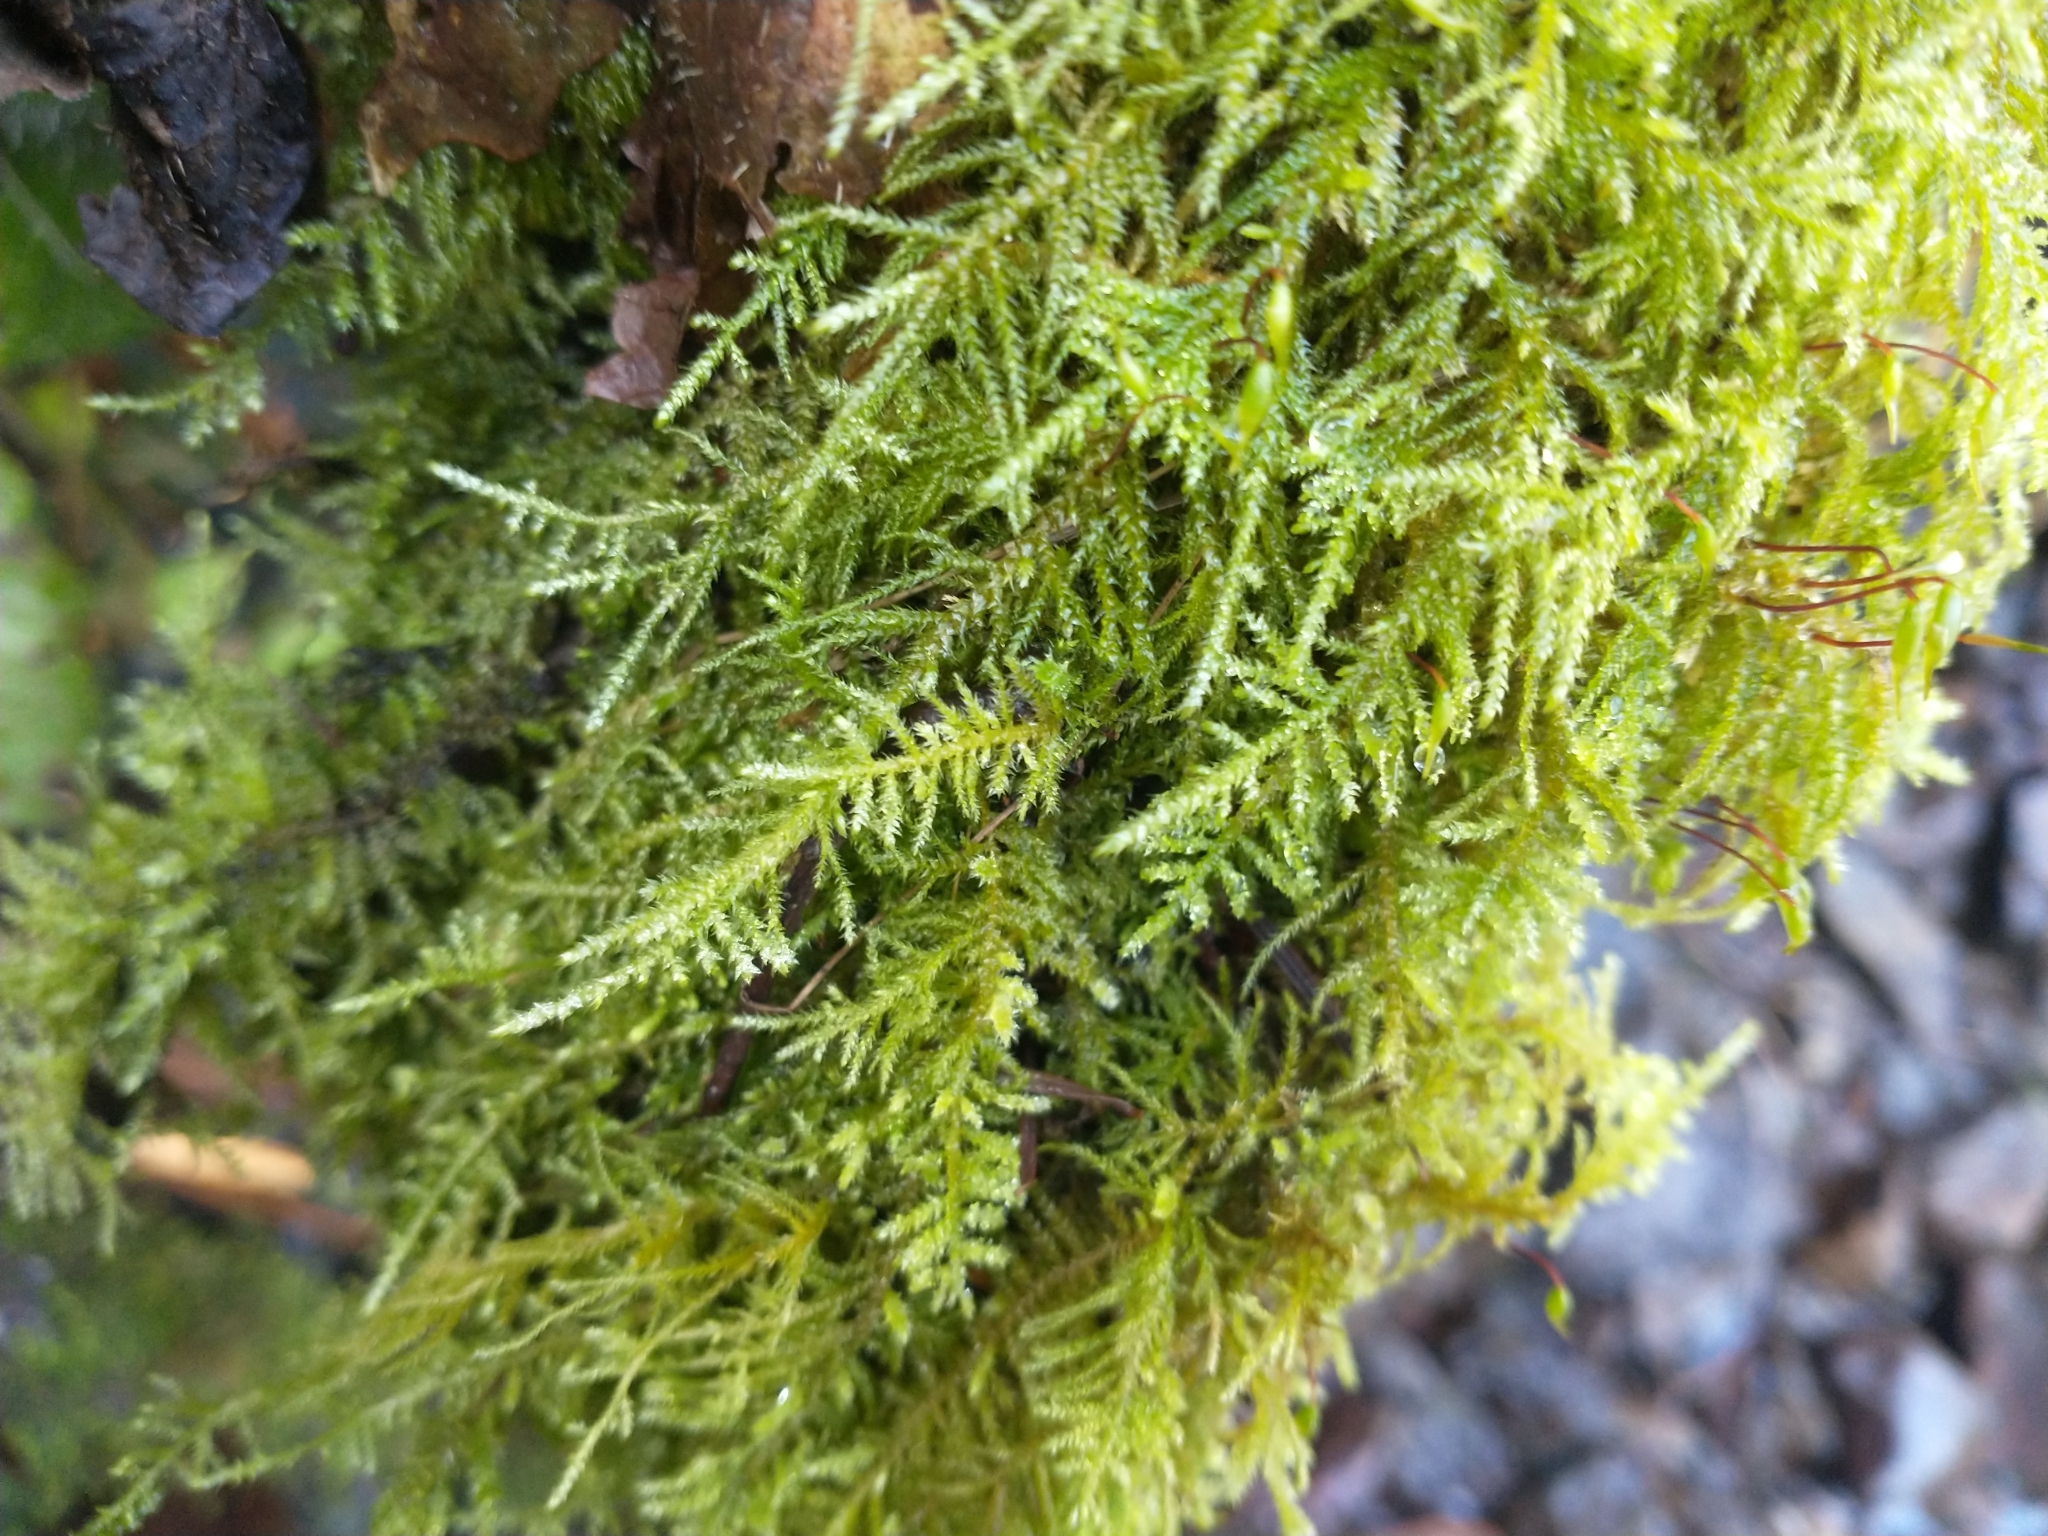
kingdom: Plantae
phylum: Bryophyta
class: Bryopsida
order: Hypnales
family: Brachytheciaceae
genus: Kindbergia
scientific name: Kindbergia oregana
